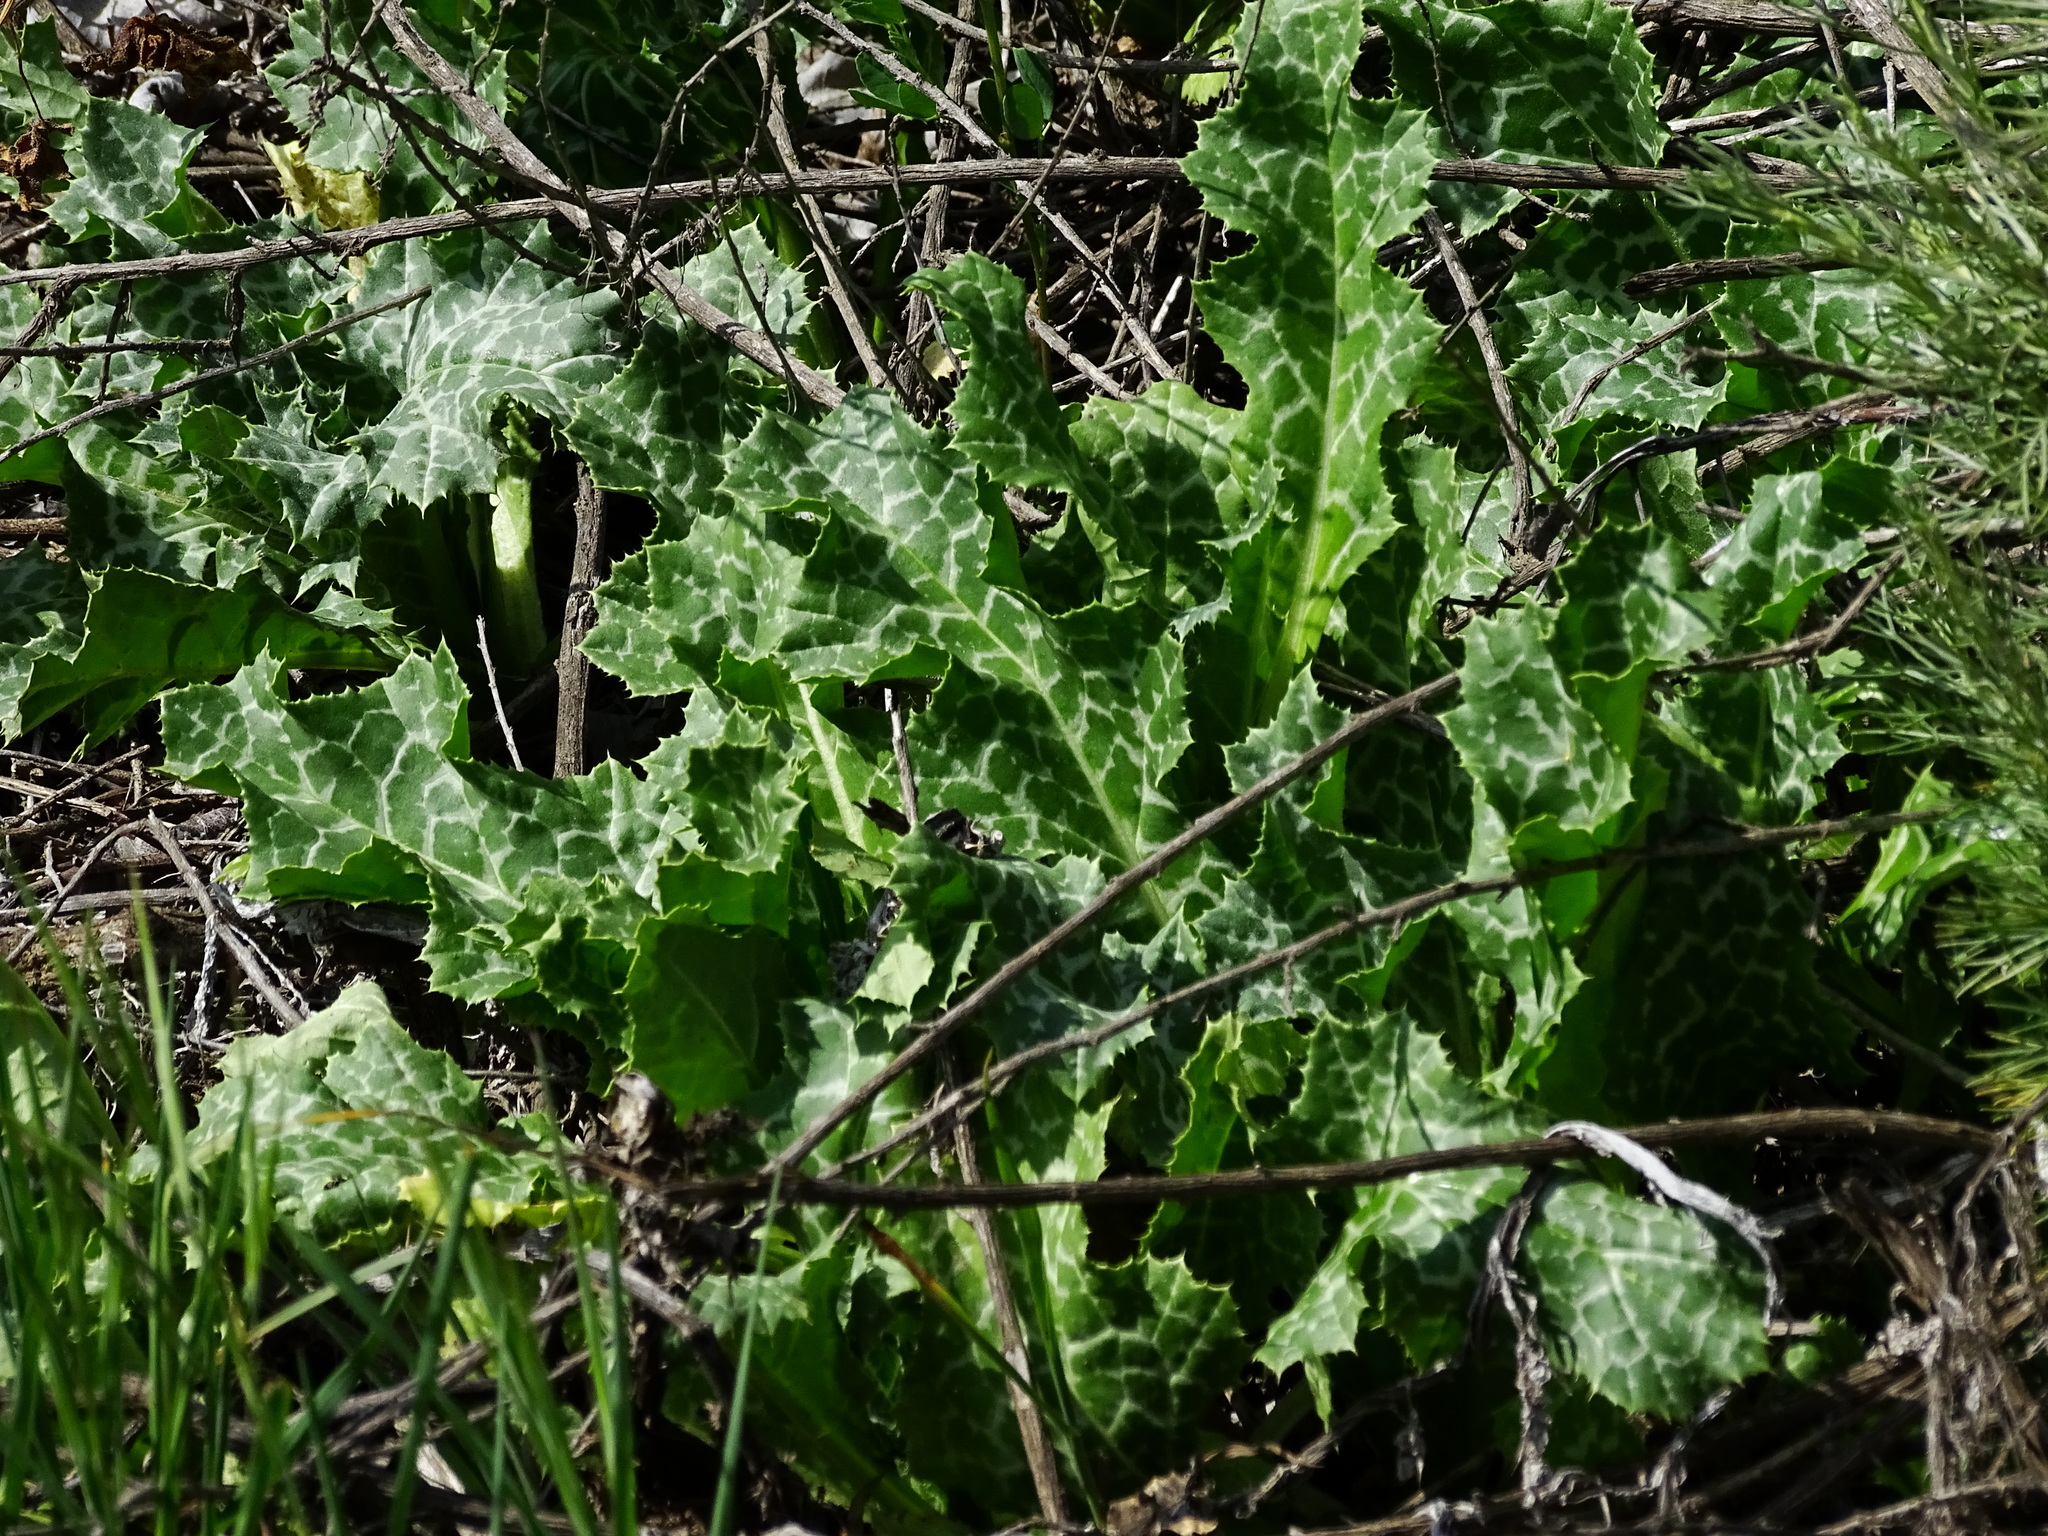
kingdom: Plantae
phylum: Tracheophyta
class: Magnoliopsida
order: Asterales
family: Asteraceae
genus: Silybum
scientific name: Silybum marianum
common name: Milk thistle
